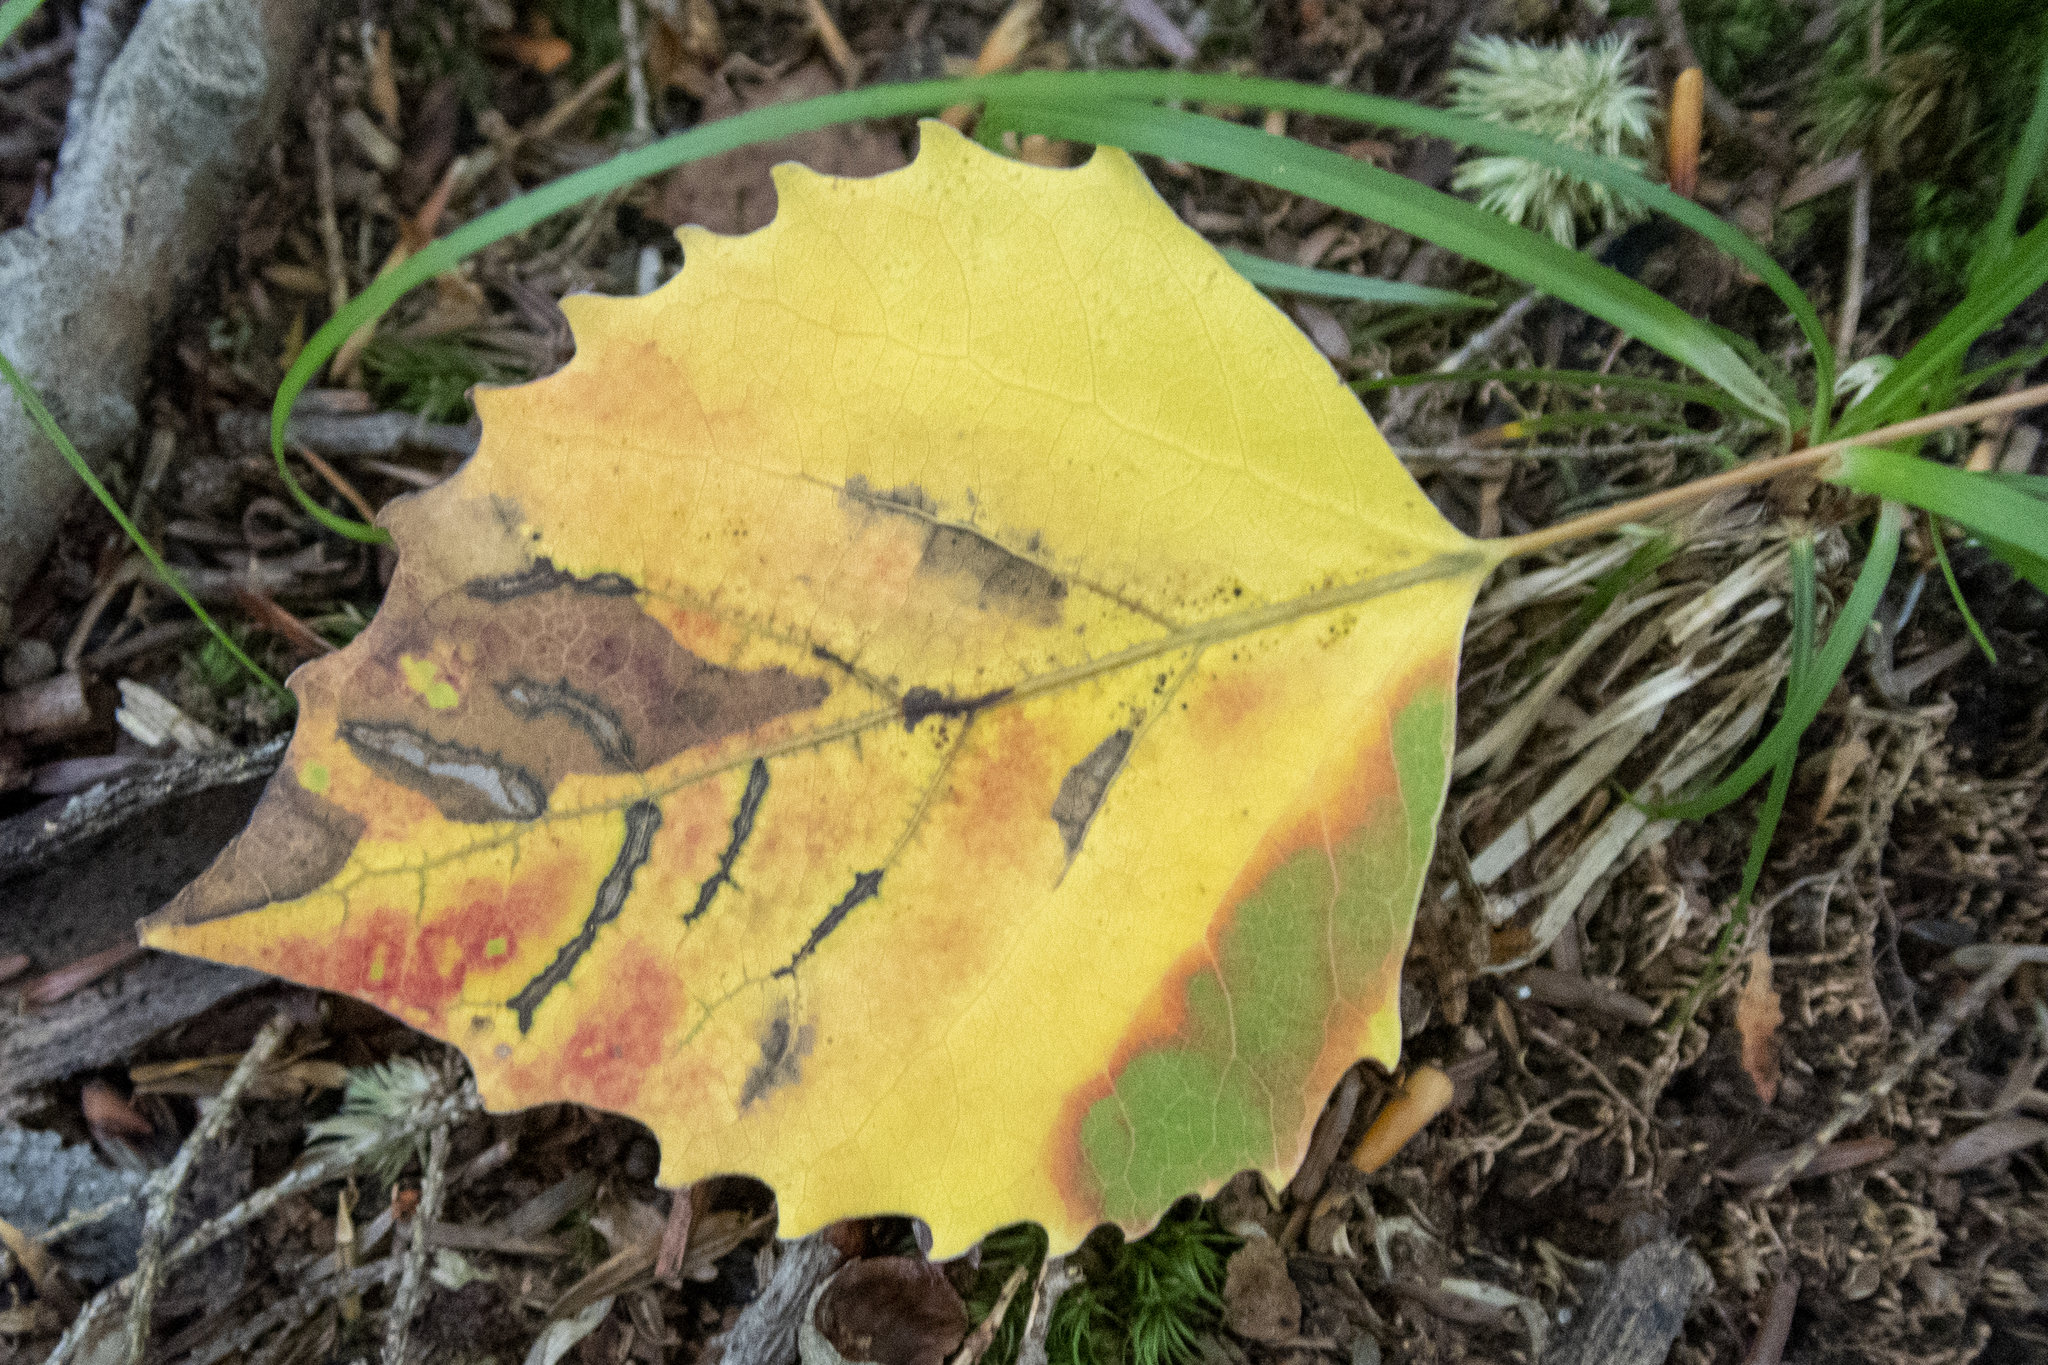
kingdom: Plantae
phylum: Tracheophyta
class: Magnoliopsida
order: Malpighiales
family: Salicaceae
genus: Populus
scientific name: Populus grandidentata
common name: Bigtooth aspen
